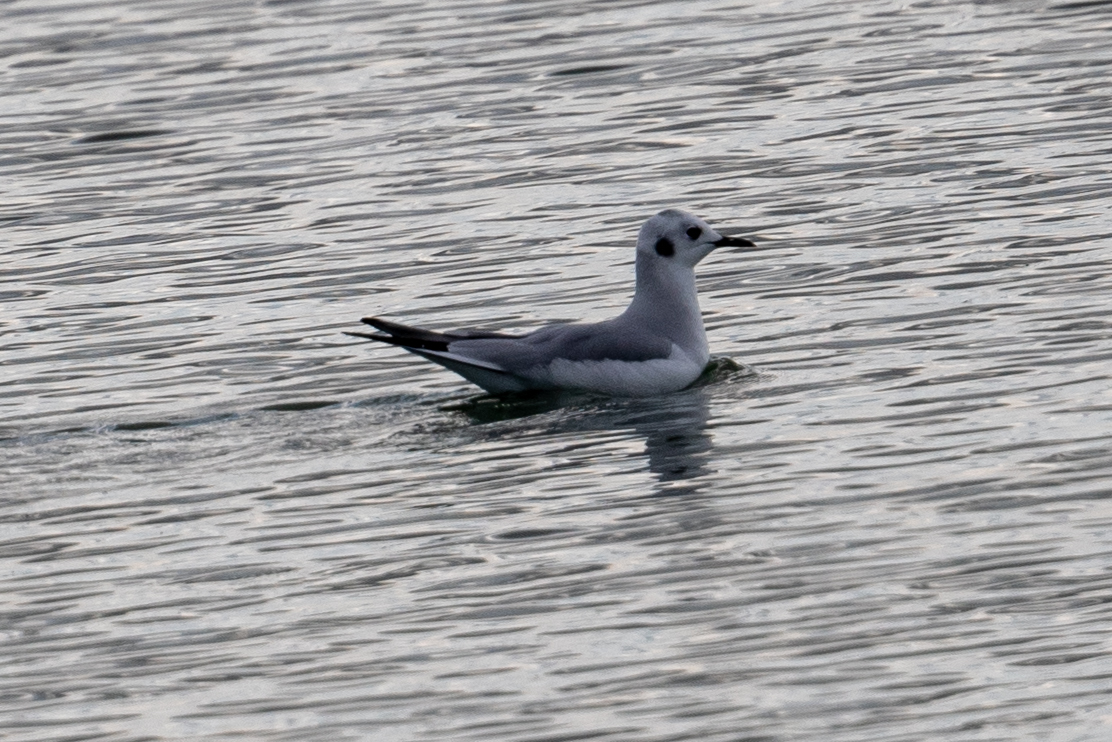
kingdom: Animalia
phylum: Chordata
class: Aves
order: Charadriiformes
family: Laridae
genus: Chroicocephalus
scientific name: Chroicocephalus philadelphia
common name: Bonaparte's gull
